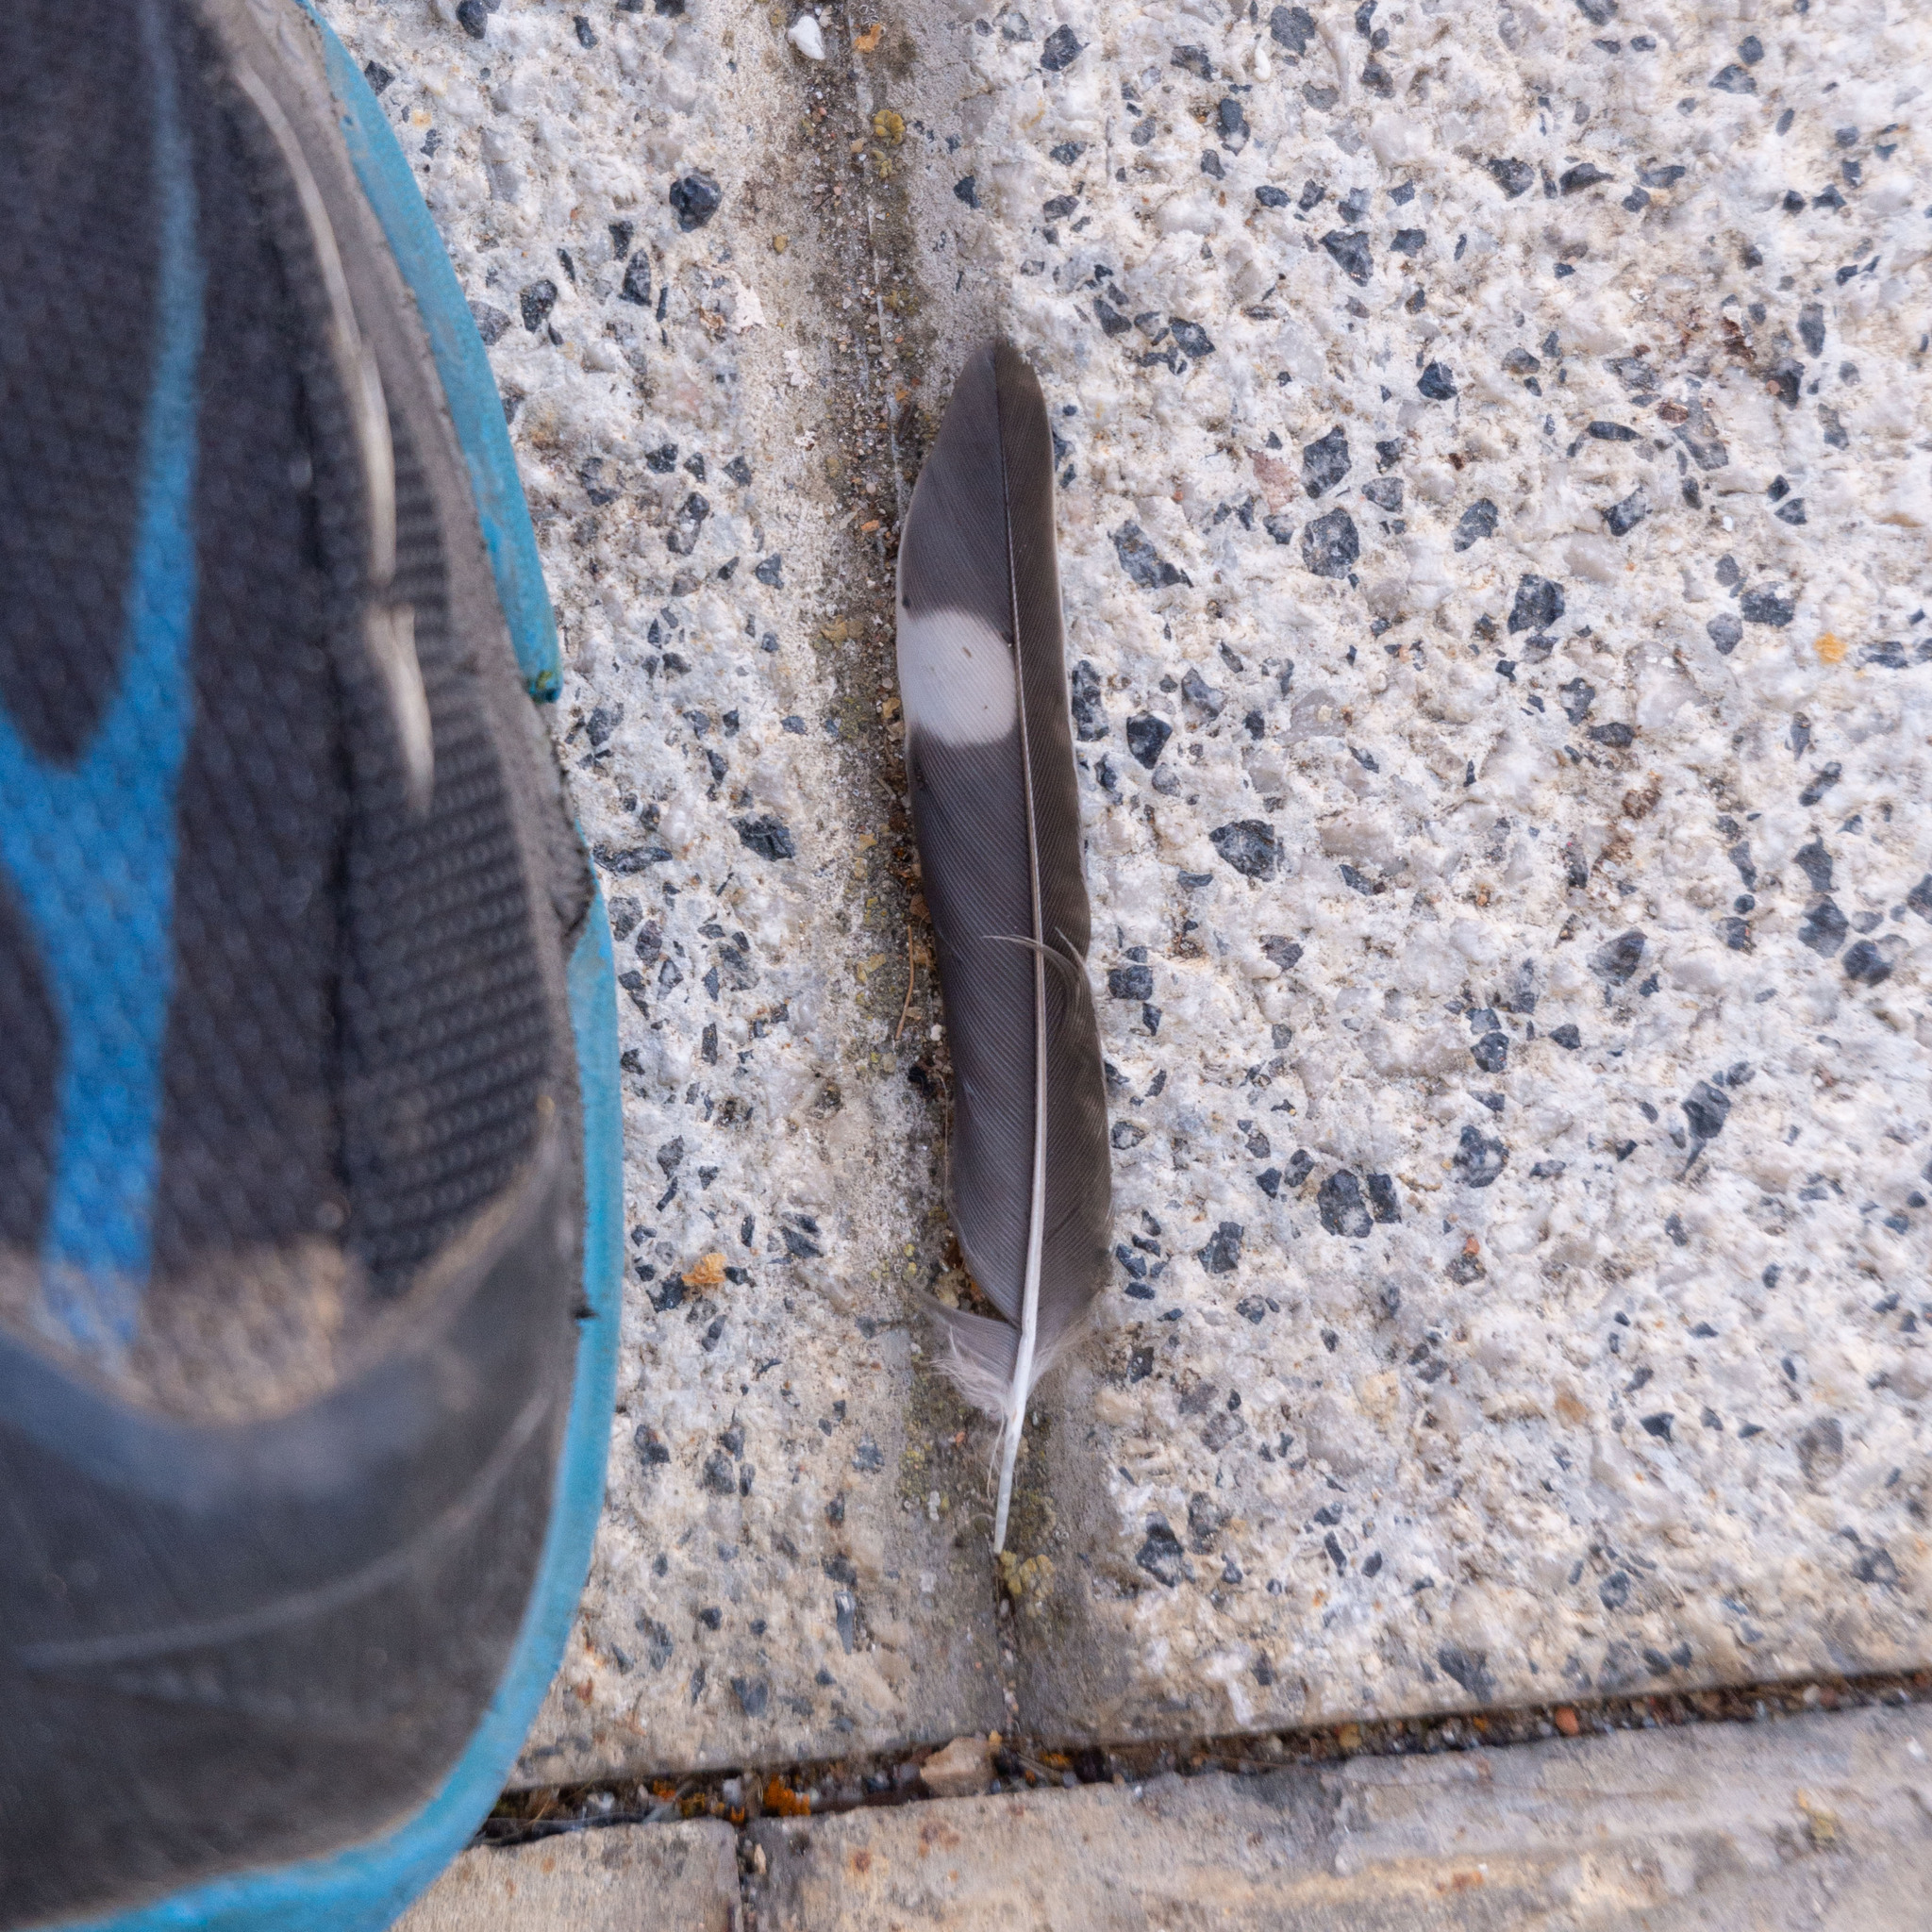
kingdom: Animalia
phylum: Chordata
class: Aves
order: Passeriformes
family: Hirundinidae
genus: Hirundo
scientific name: Hirundo rustica
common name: Barn swallow
